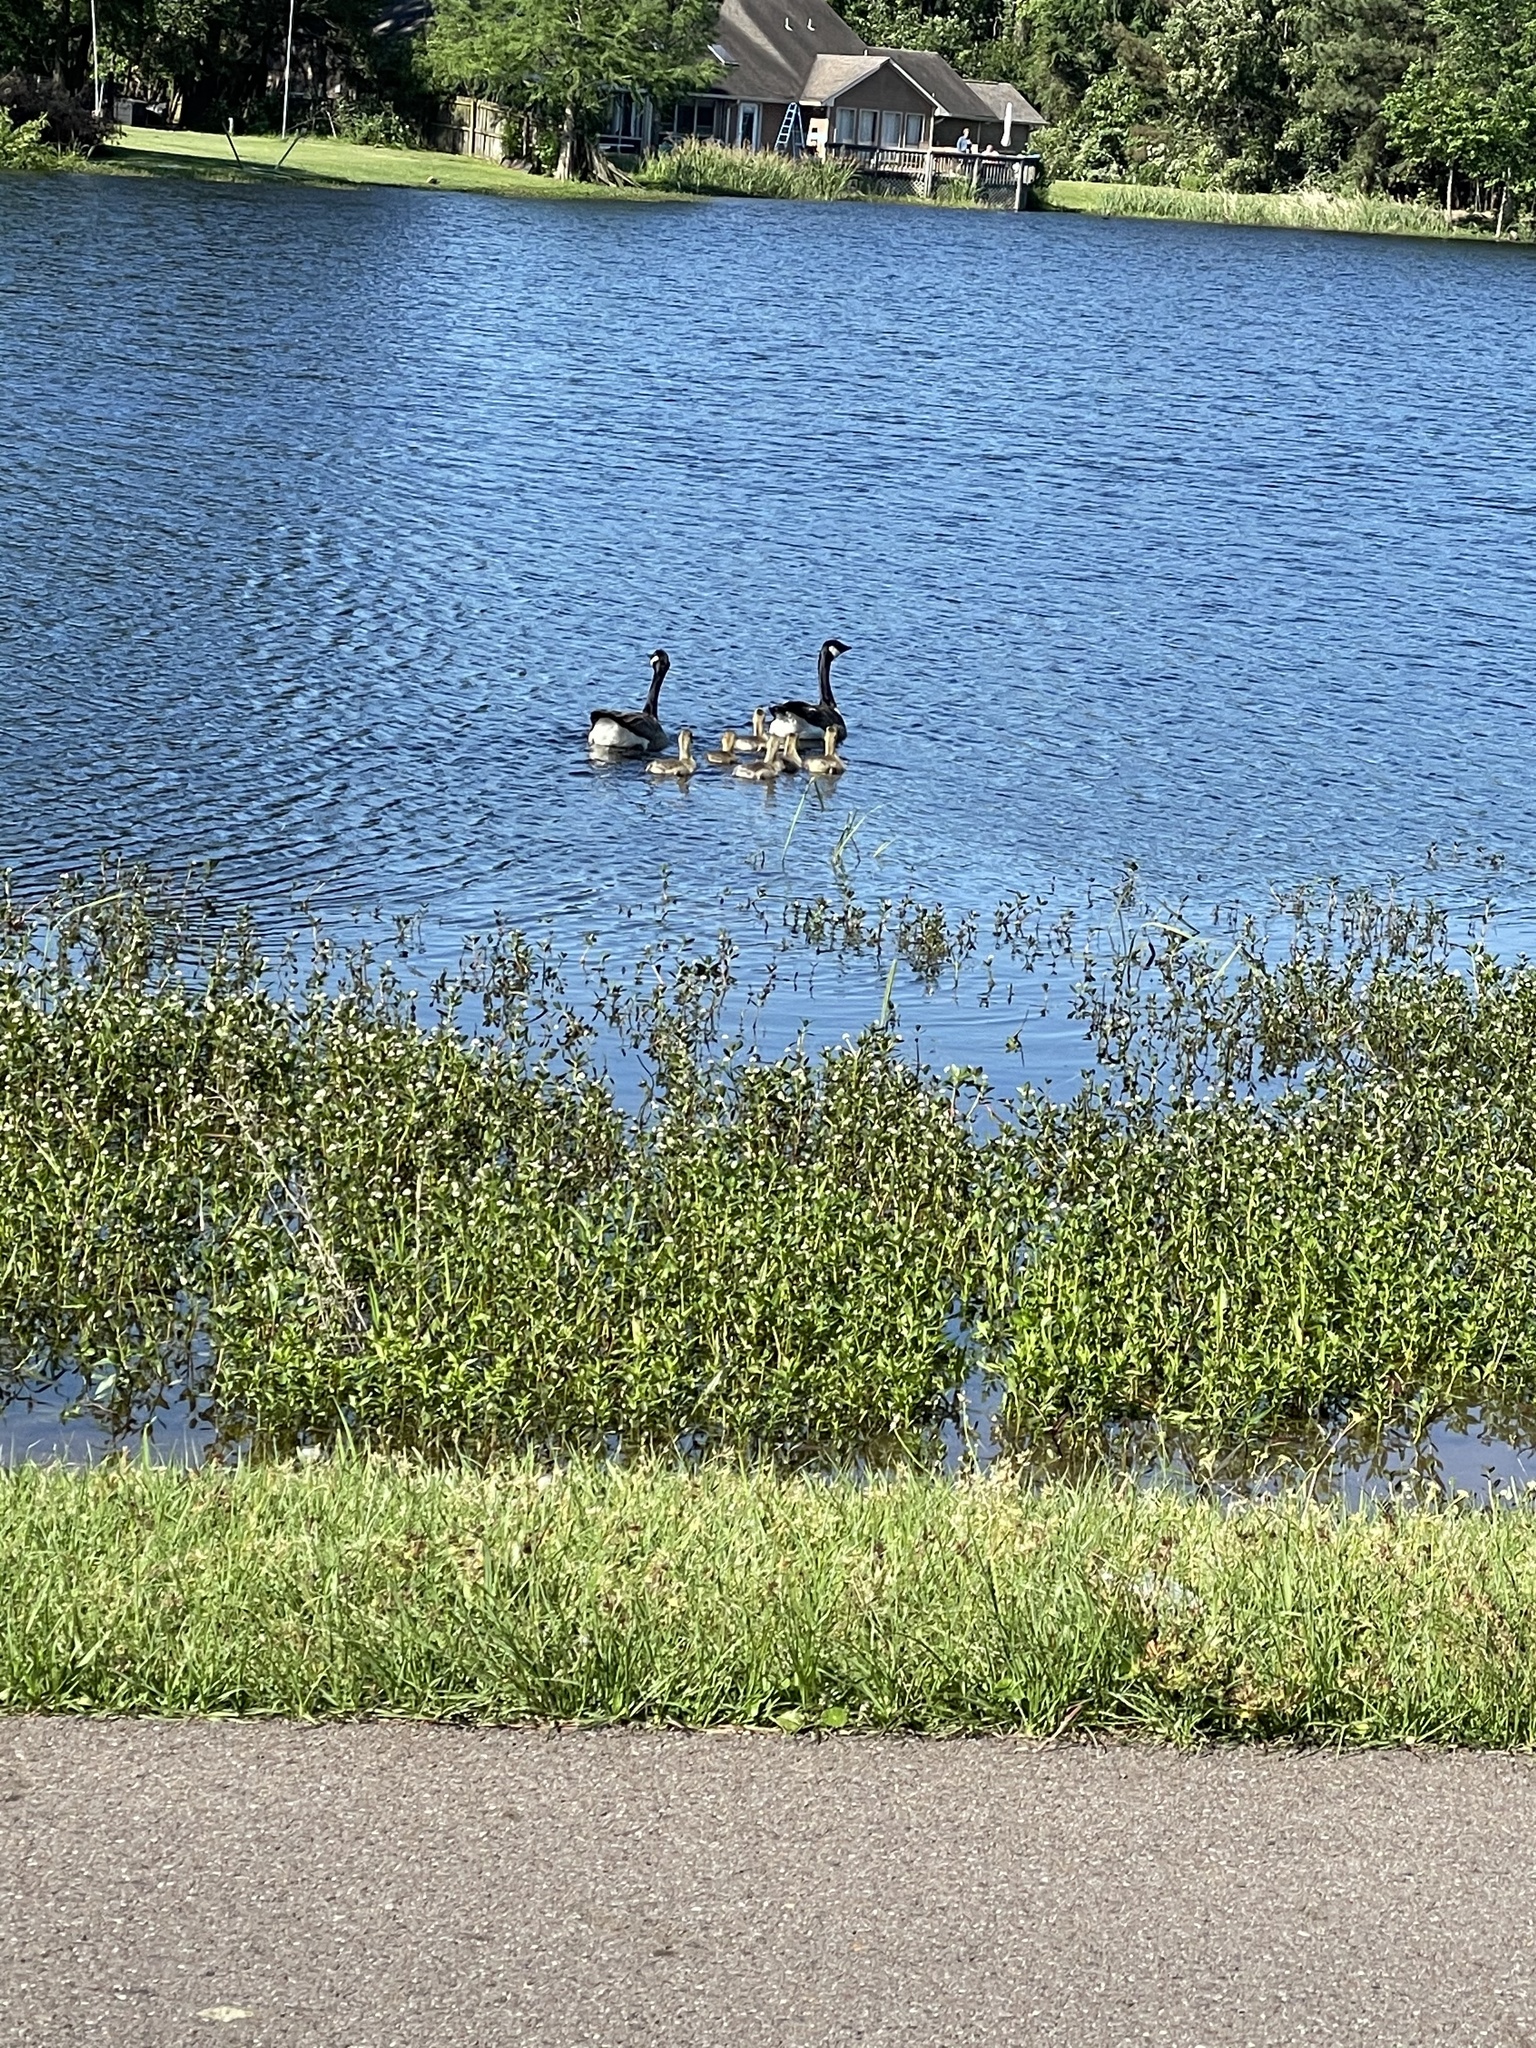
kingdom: Animalia
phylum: Chordata
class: Aves
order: Anseriformes
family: Anatidae
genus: Branta
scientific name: Branta canadensis
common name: Canada goose
